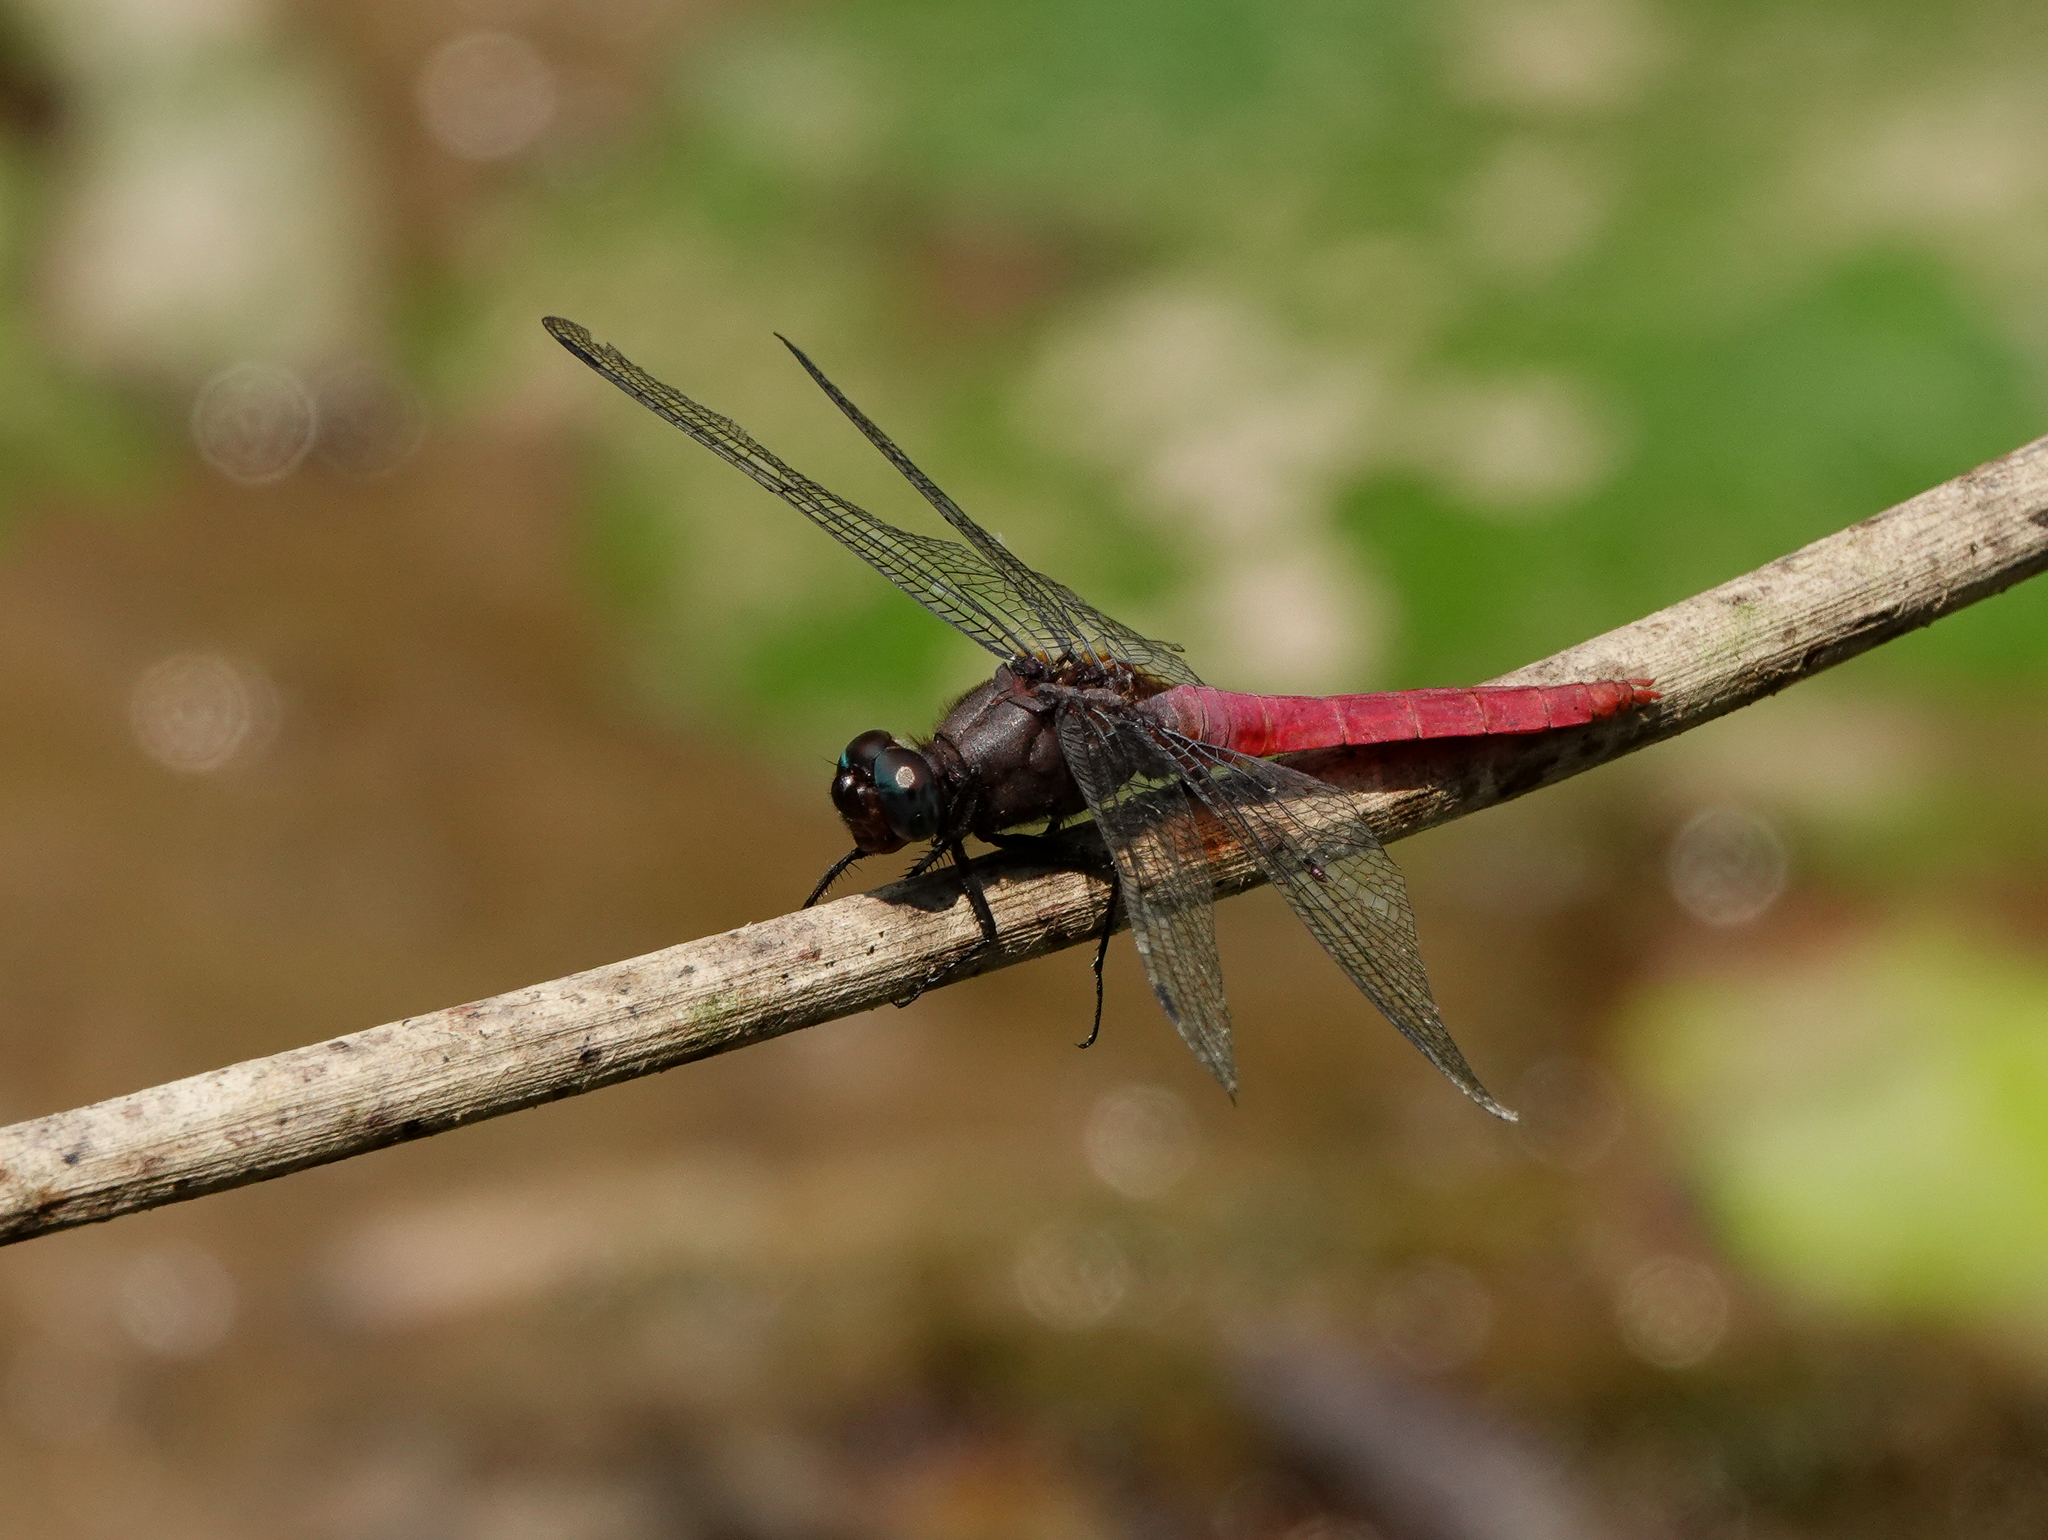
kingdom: Animalia
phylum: Arthropoda
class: Insecta
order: Odonata
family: Libellulidae
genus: Orthetrum
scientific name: Orthetrum pruinosum
